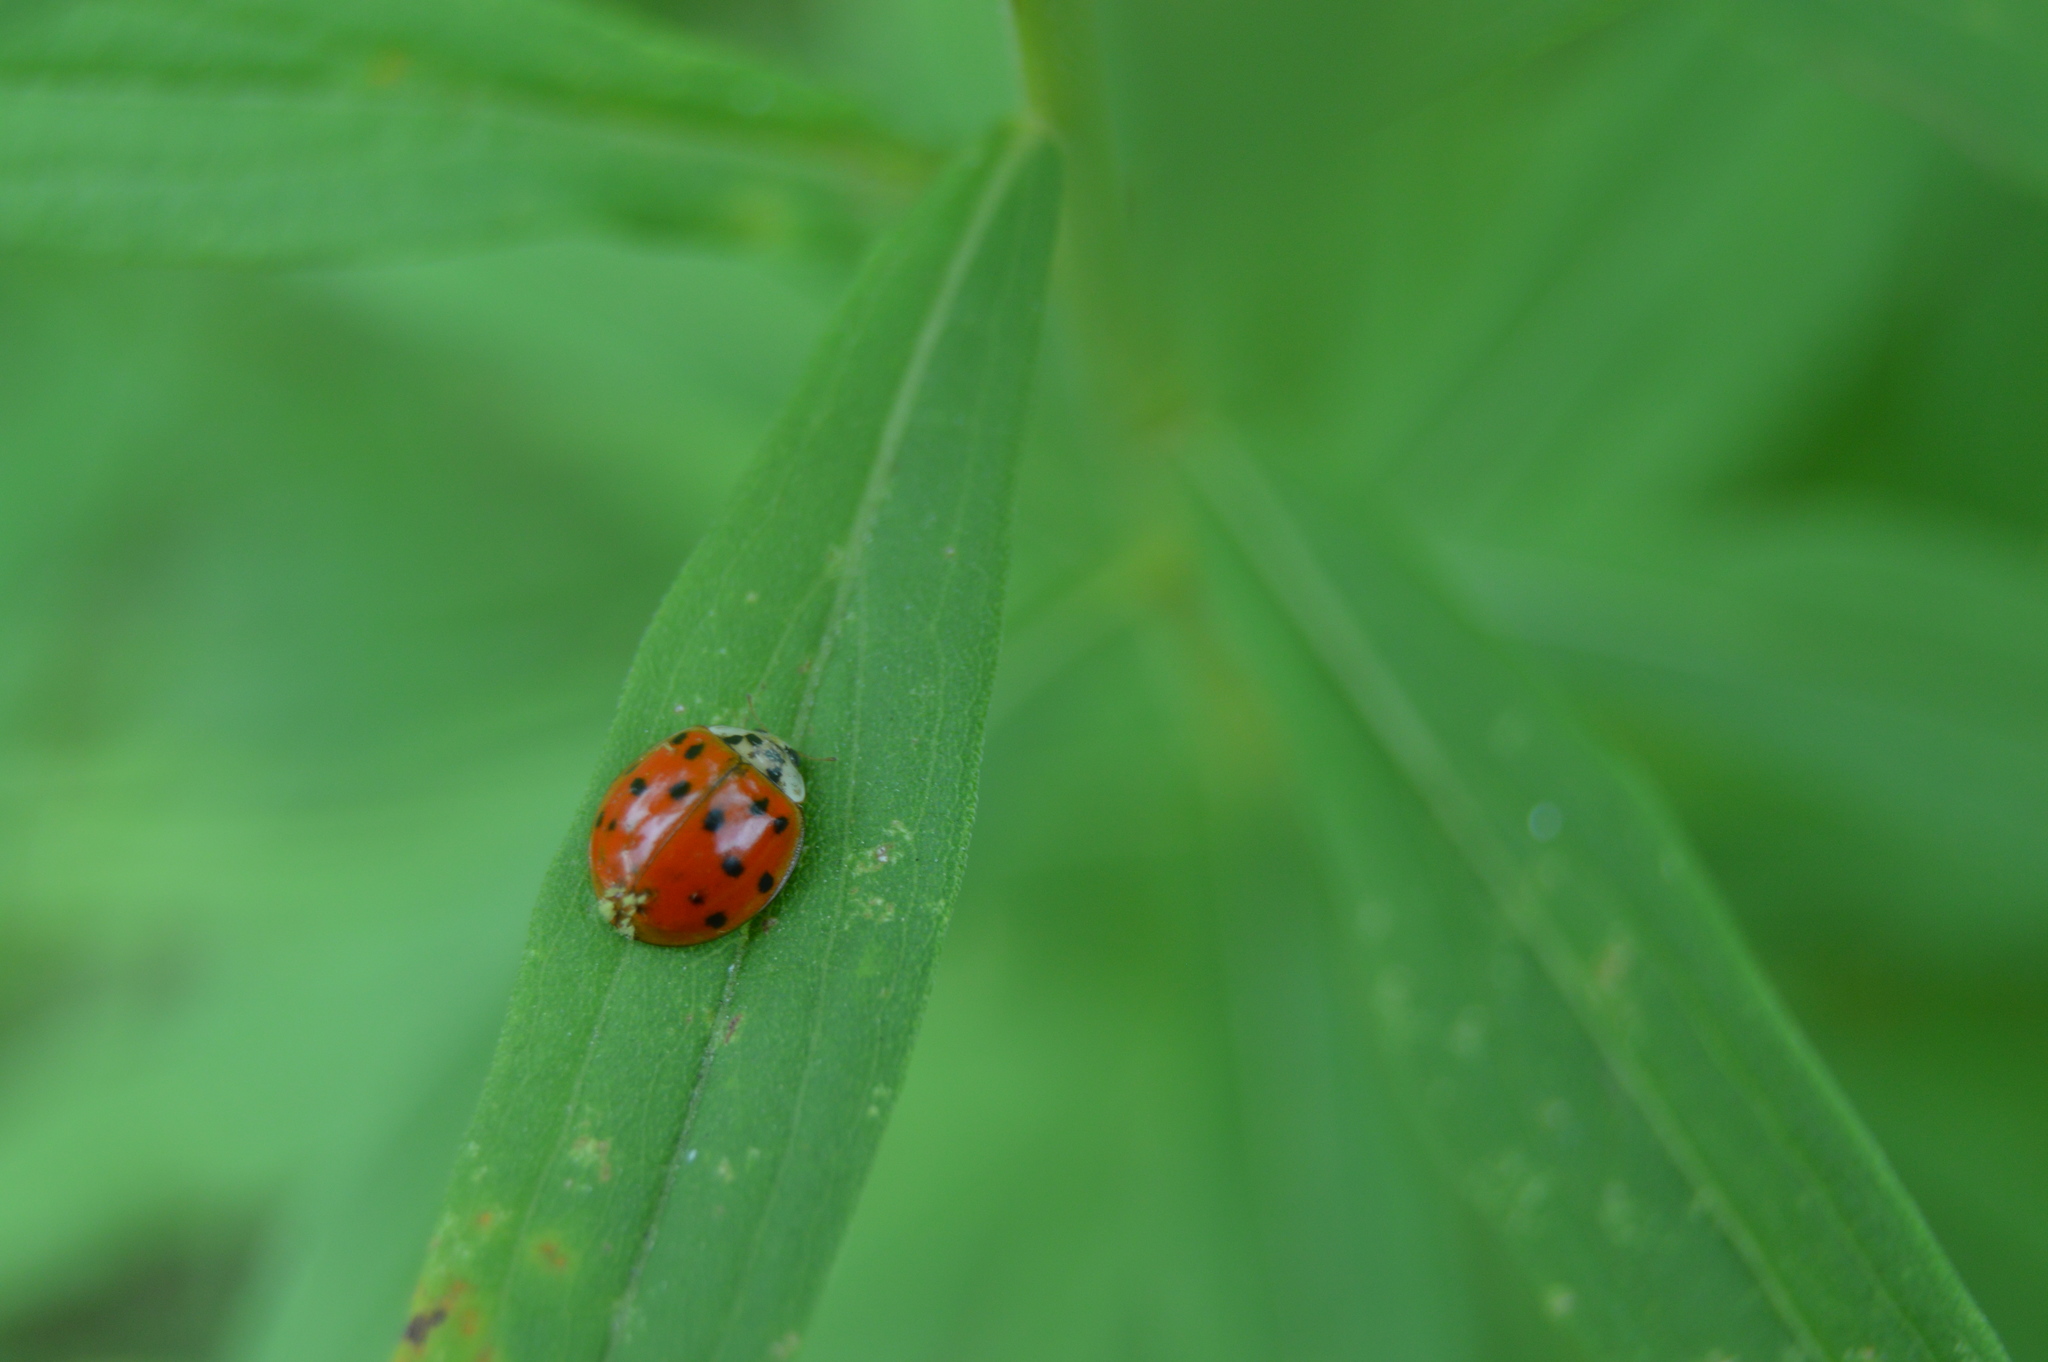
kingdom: Animalia
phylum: Arthropoda
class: Insecta
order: Coleoptera
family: Coccinellidae
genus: Harmonia
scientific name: Harmonia axyridis
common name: Harlequin ladybird
